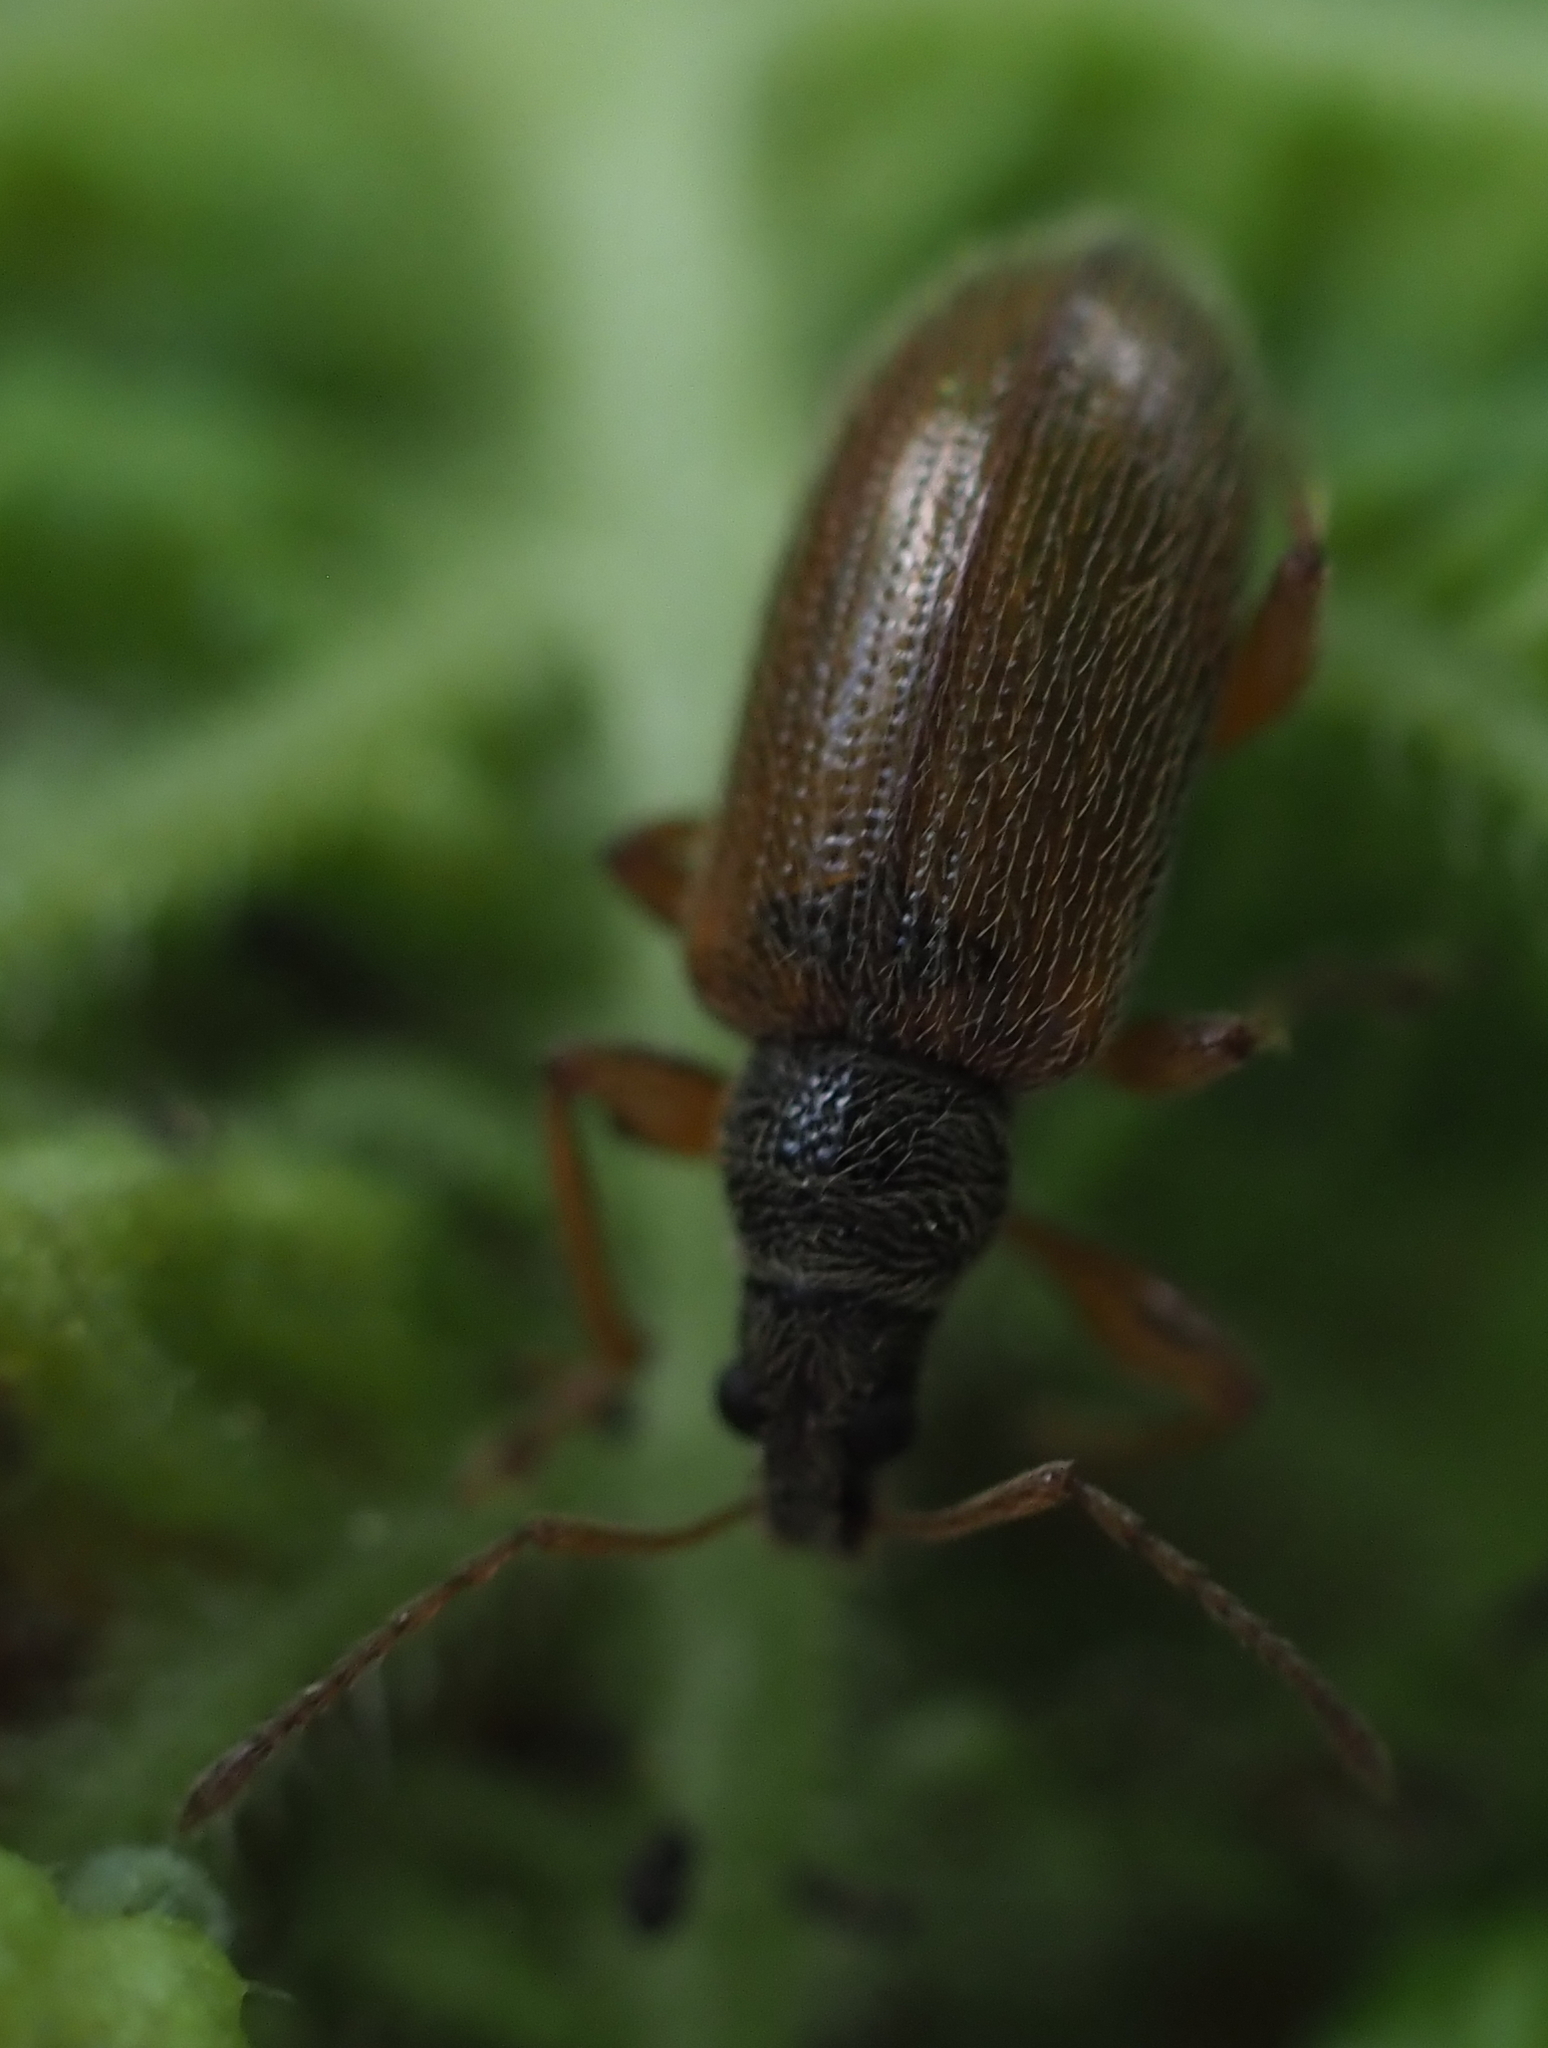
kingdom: Animalia
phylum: Arthropoda
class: Insecta
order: Coleoptera
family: Curculionidae
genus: Phyllobius
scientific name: Phyllobius oblongus
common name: Brown leaf weevil
